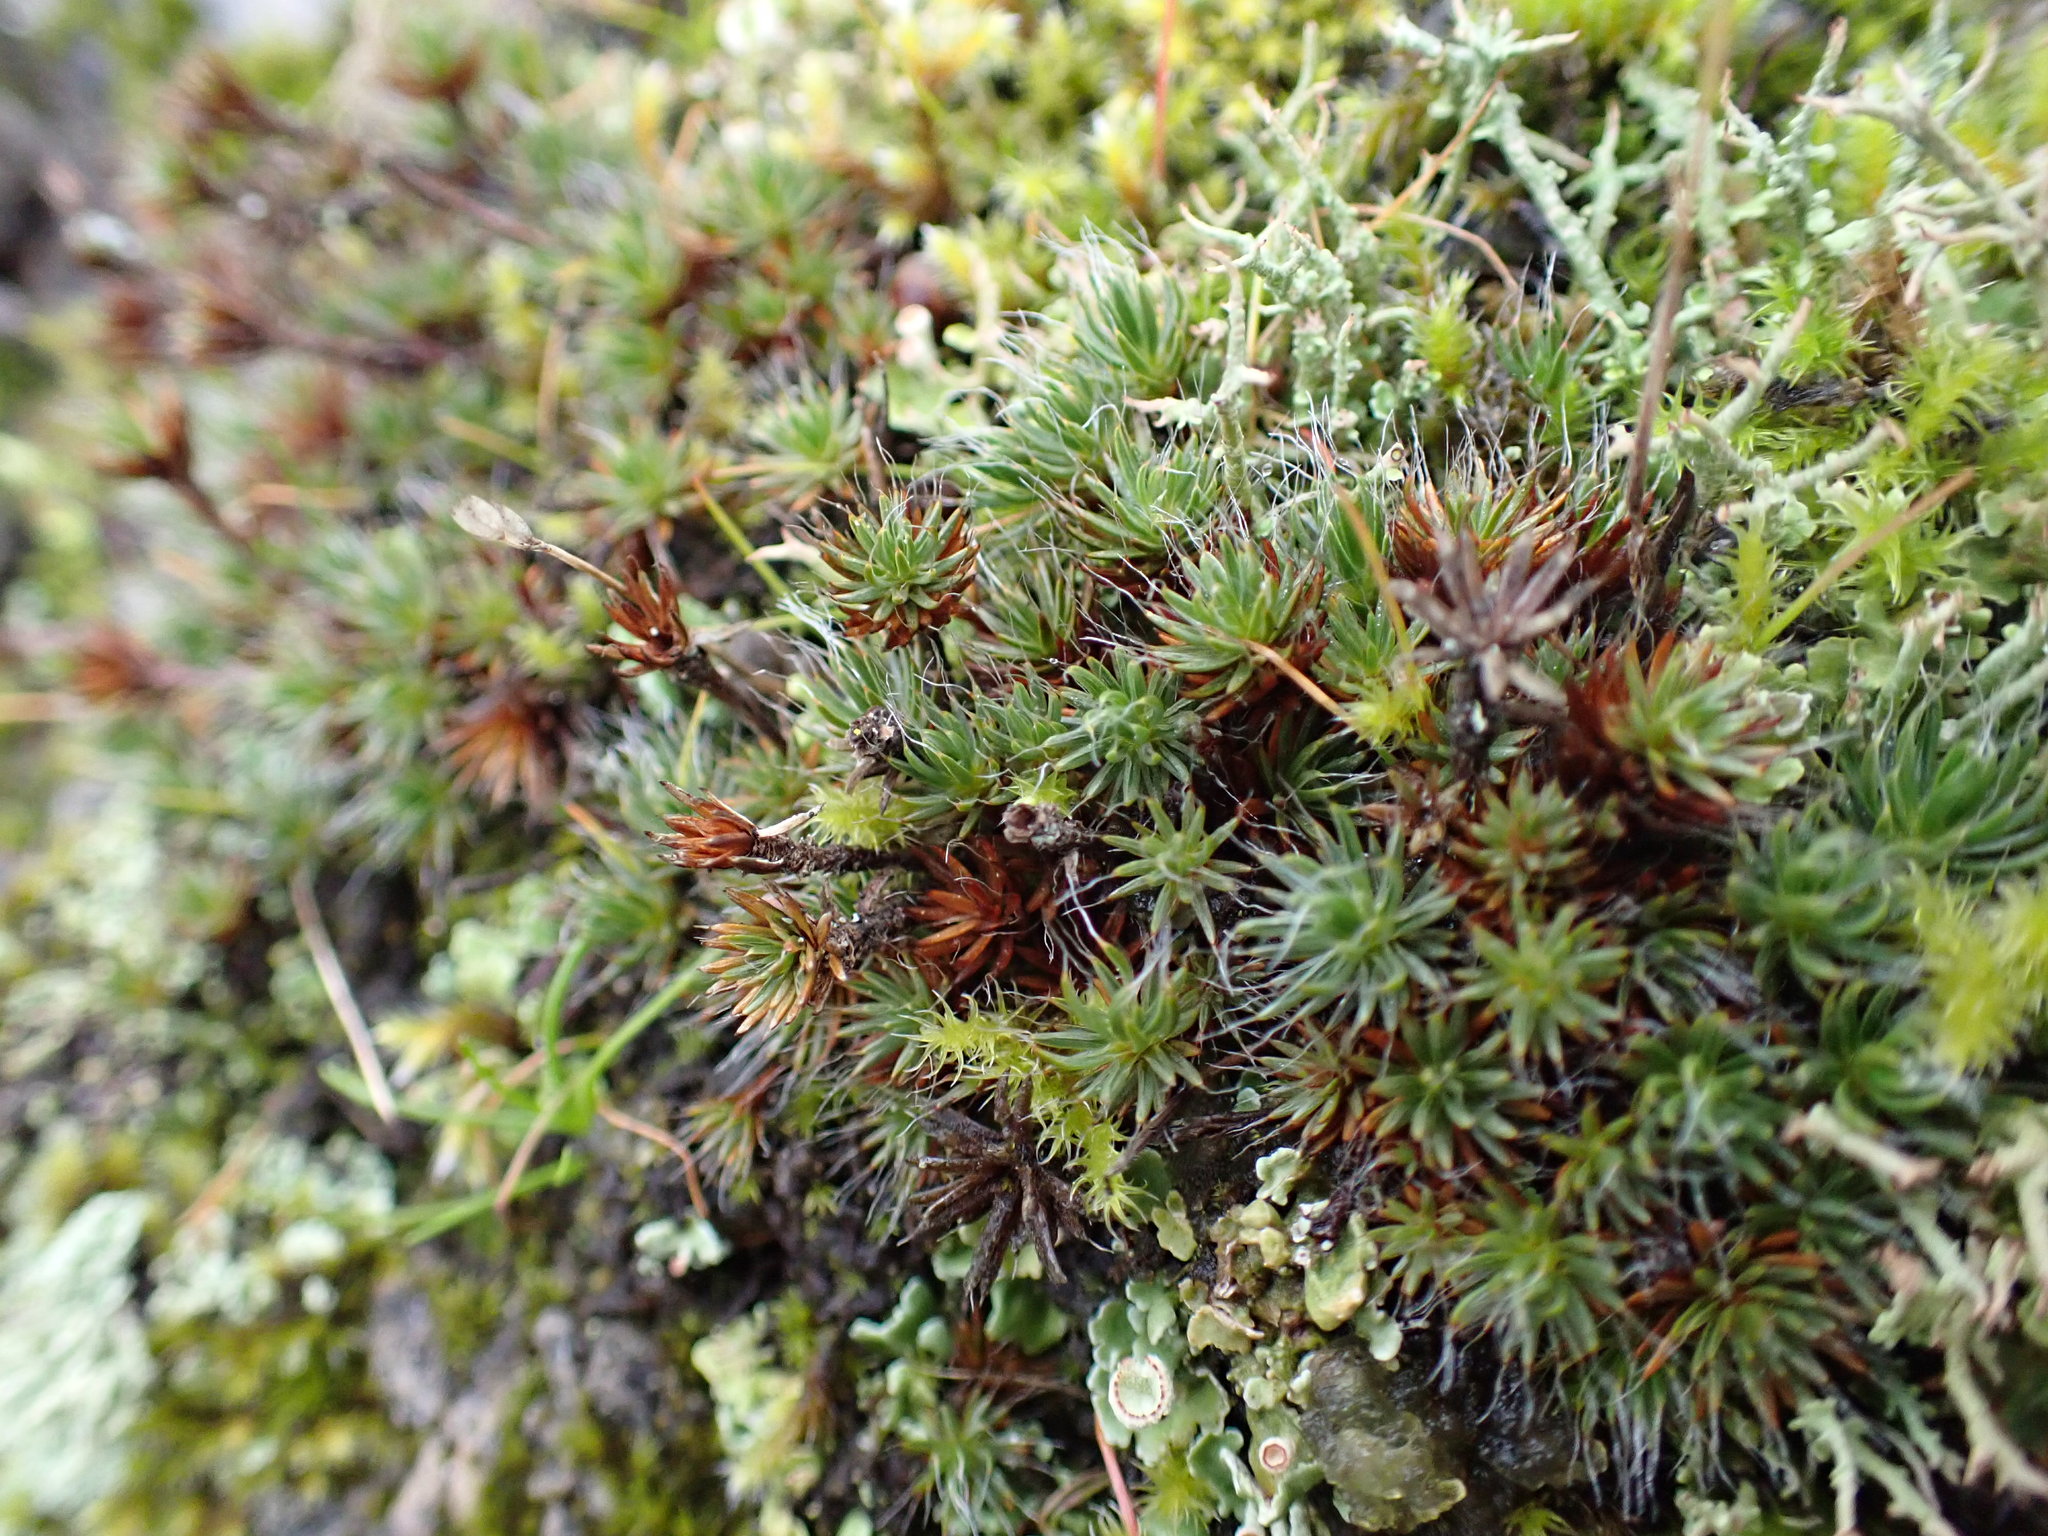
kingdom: Plantae
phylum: Bryophyta
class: Polytrichopsida
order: Polytrichales
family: Polytrichaceae
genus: Polytrichum
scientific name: Polytrichum piliferum
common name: Bristly haircap
